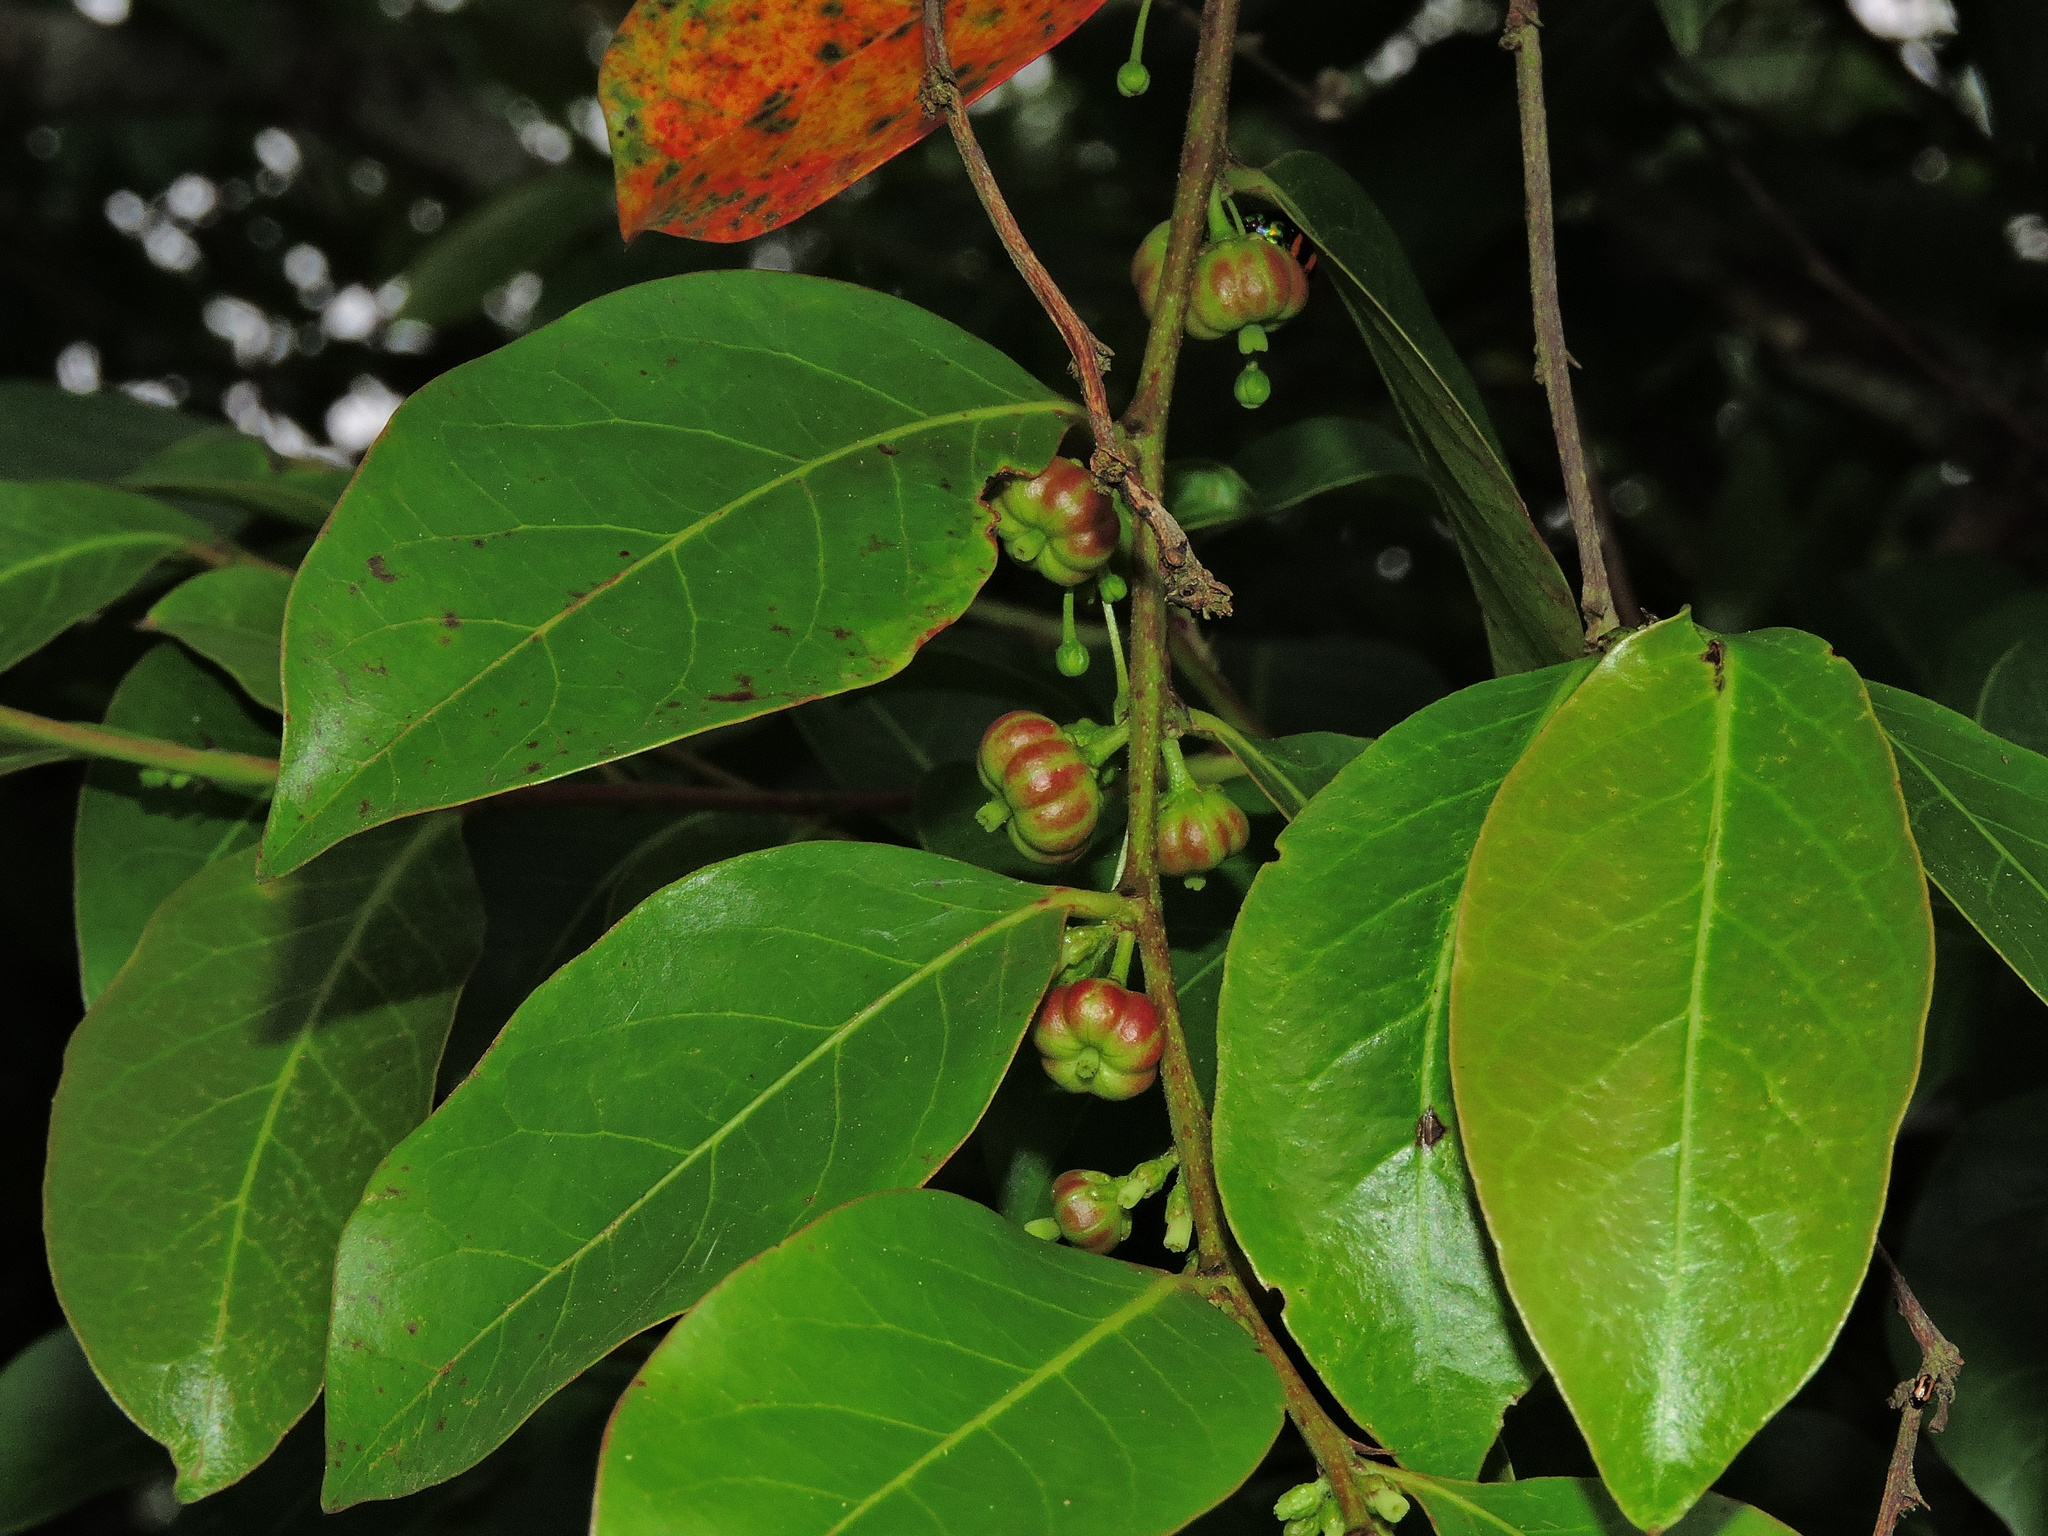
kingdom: Plantae
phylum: Tracheophyta
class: Magnoliopsida
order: Malpighiales
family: Phyllanthaceae
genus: Glochidion
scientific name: Glochidion rubrum
